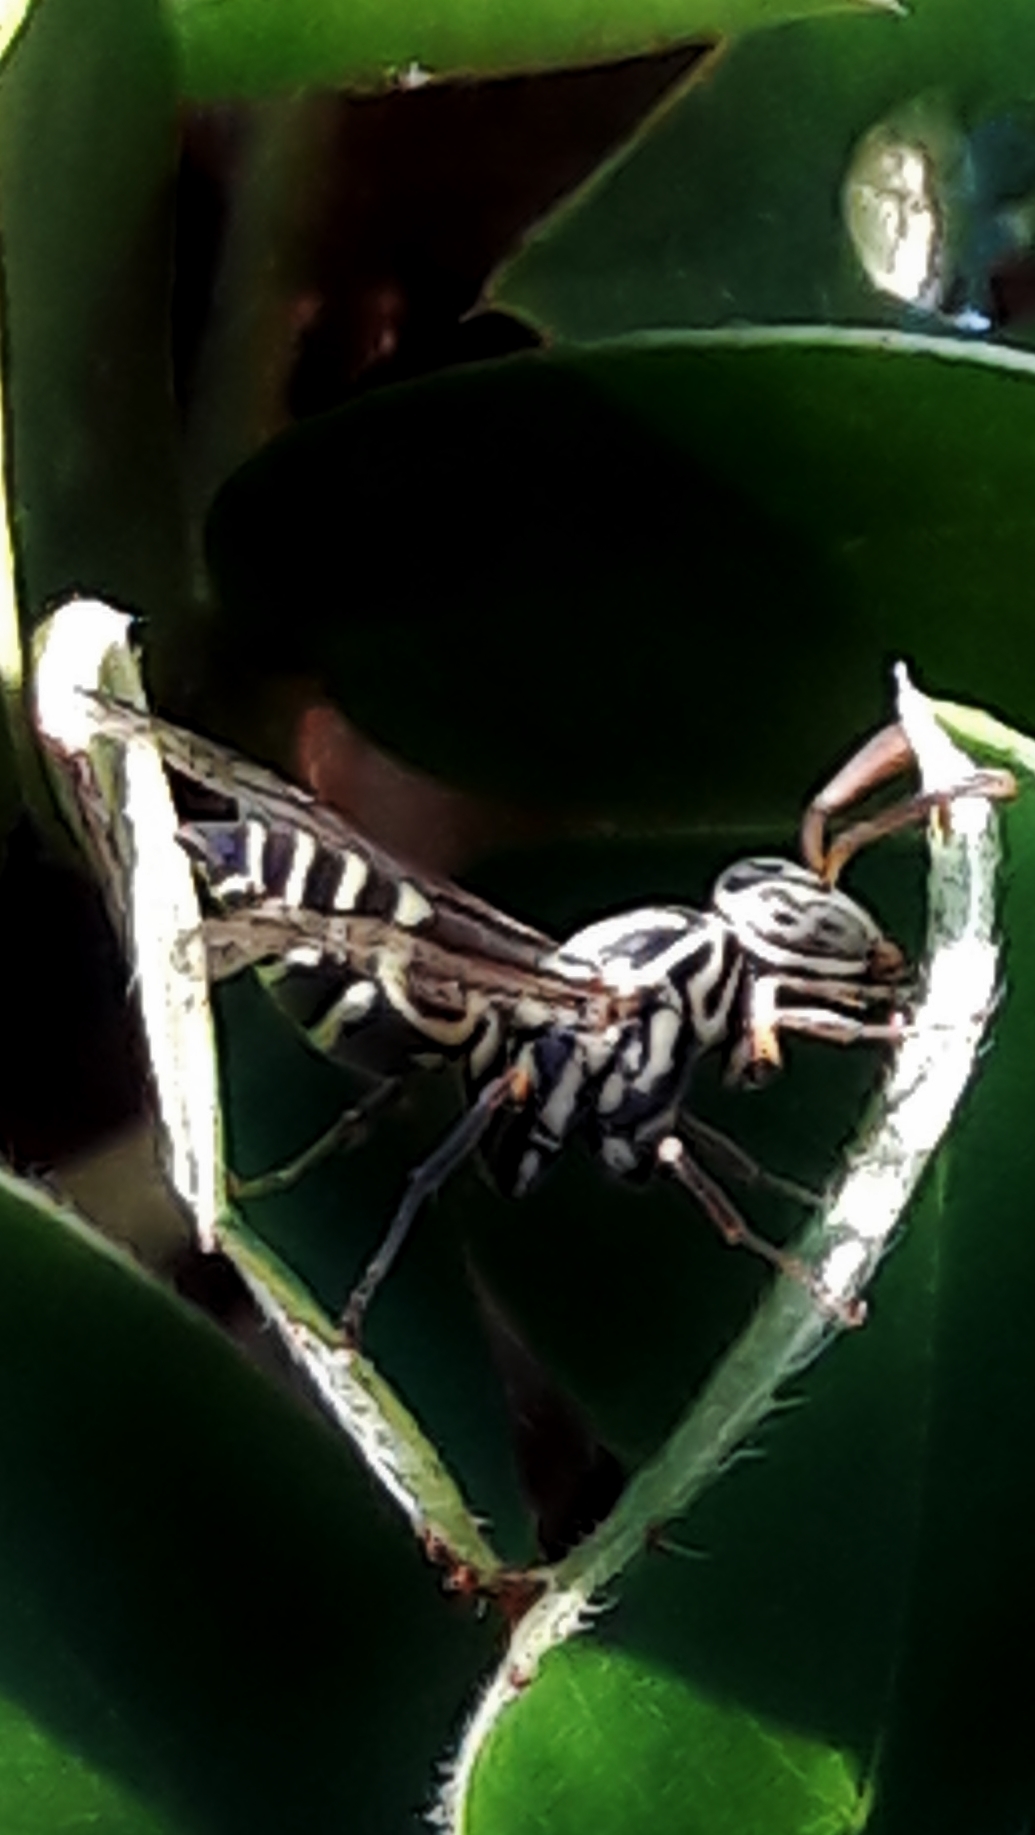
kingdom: Animalia
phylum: Arthropoda
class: Insecta
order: Hymenoptera
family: Vespidae
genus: Protopolybia
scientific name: Protopolybia exigua
